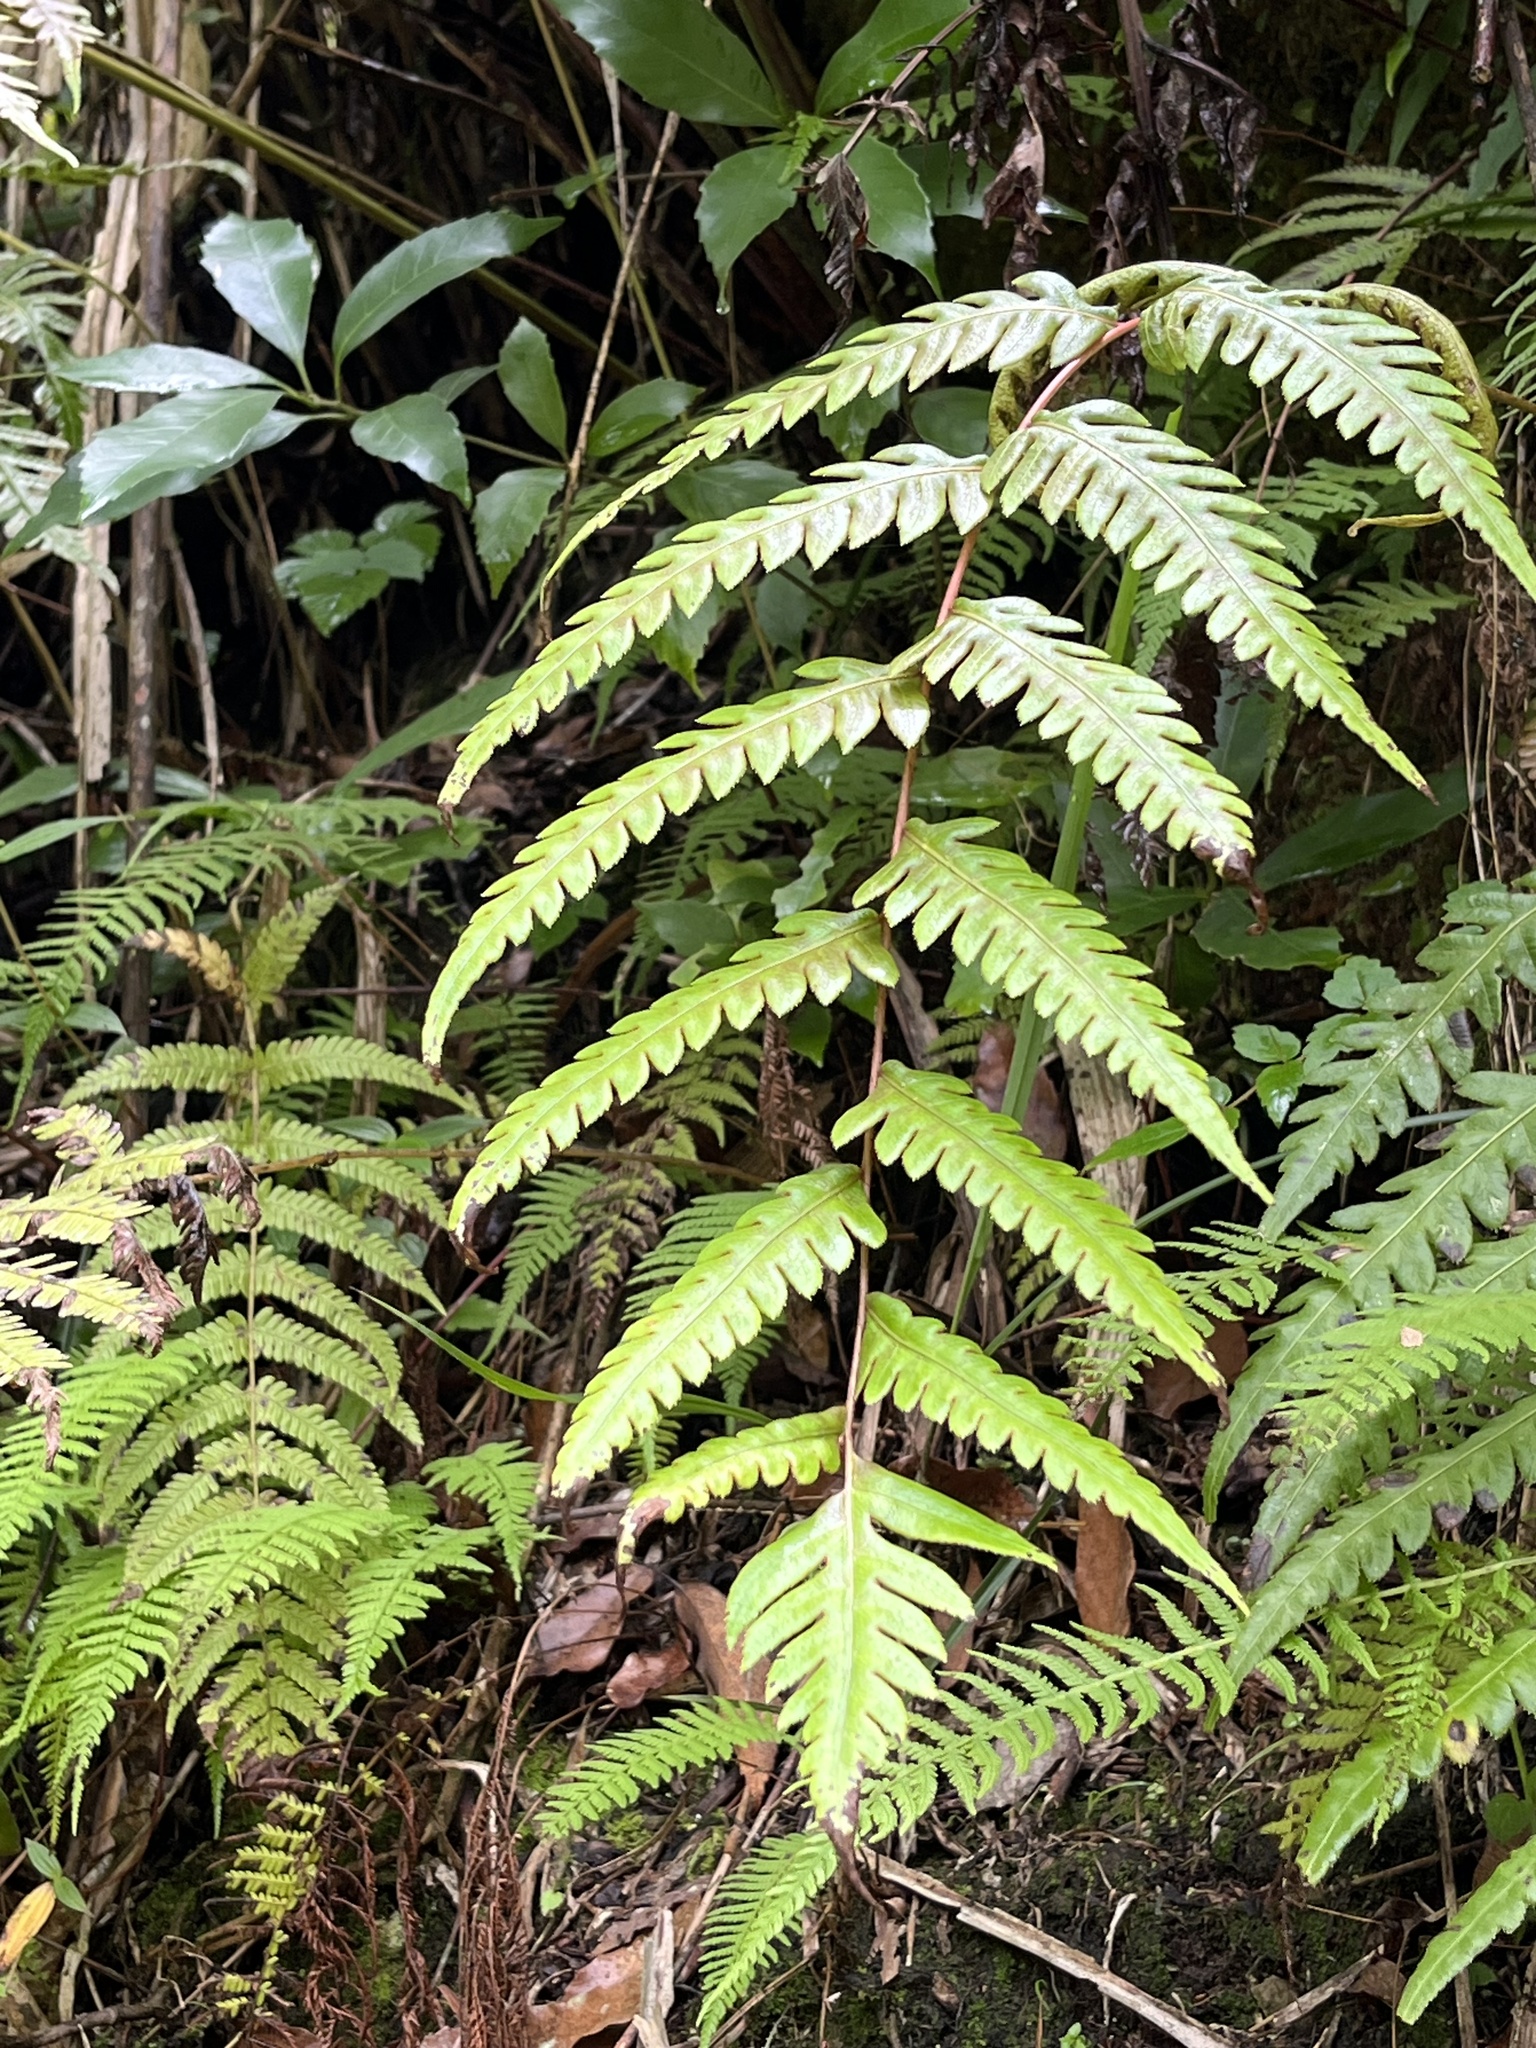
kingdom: Plantae
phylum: Tracheophyta
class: Polypodiopsida
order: Polypodiales
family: Blechnaceae
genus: Woodwardia
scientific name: Woodwardia unigemmata
